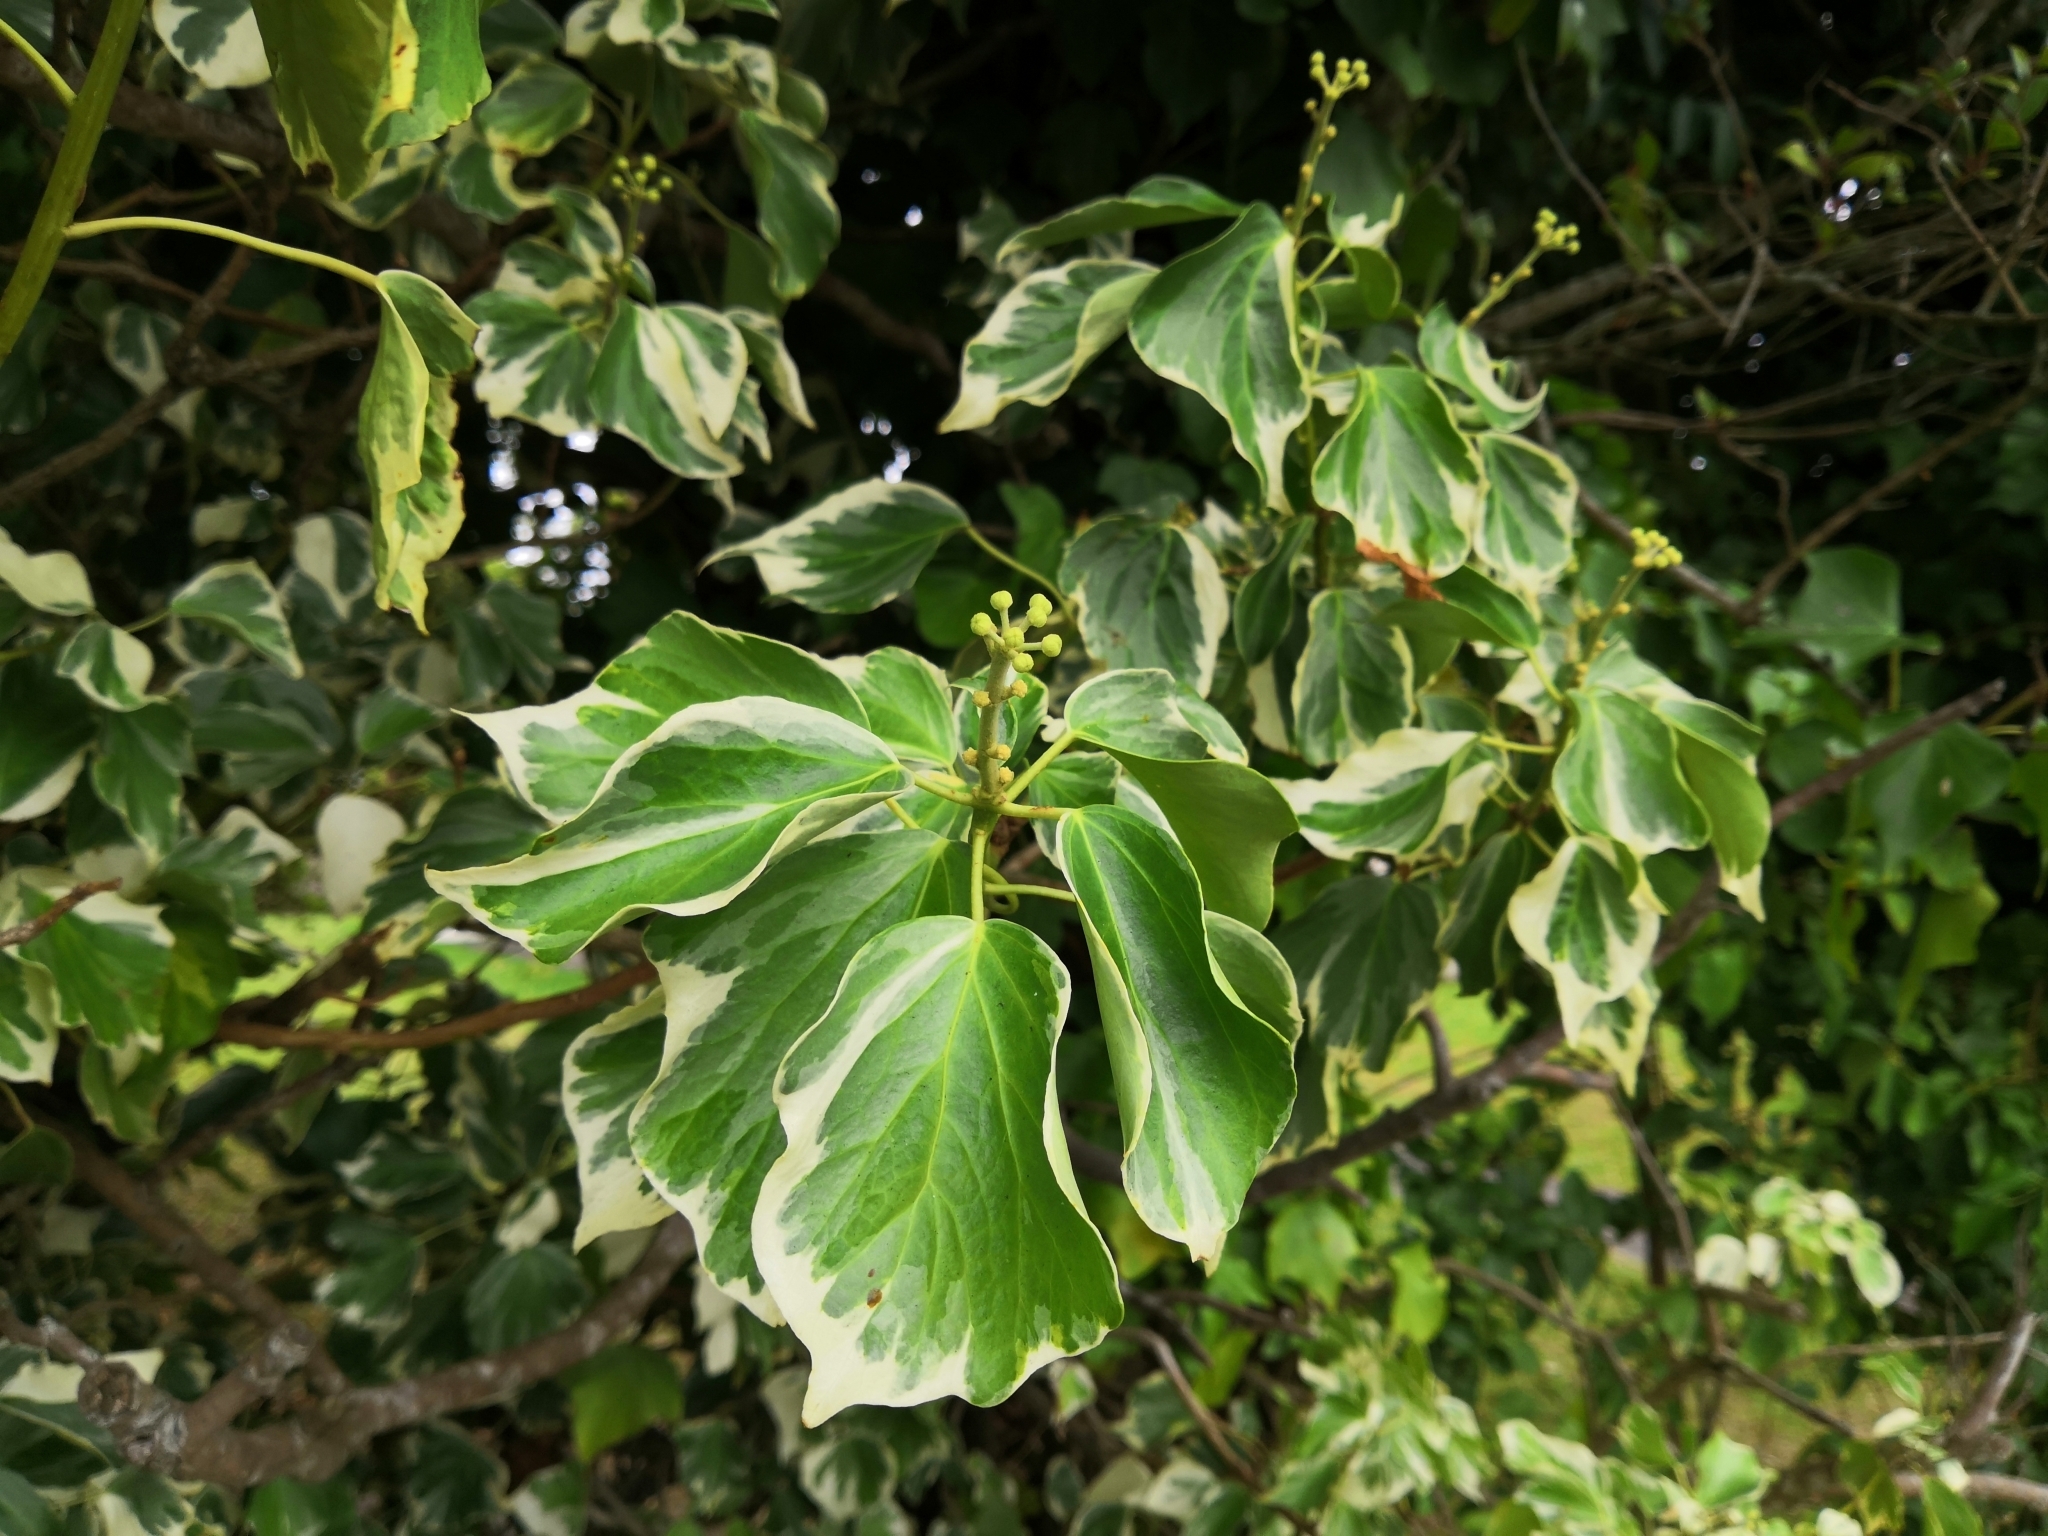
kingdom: Plantae
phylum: Tracheophyta
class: Magnoliopsida
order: Apiales
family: Araliaceae
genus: Hedera
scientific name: Hedera helix
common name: Ivy
